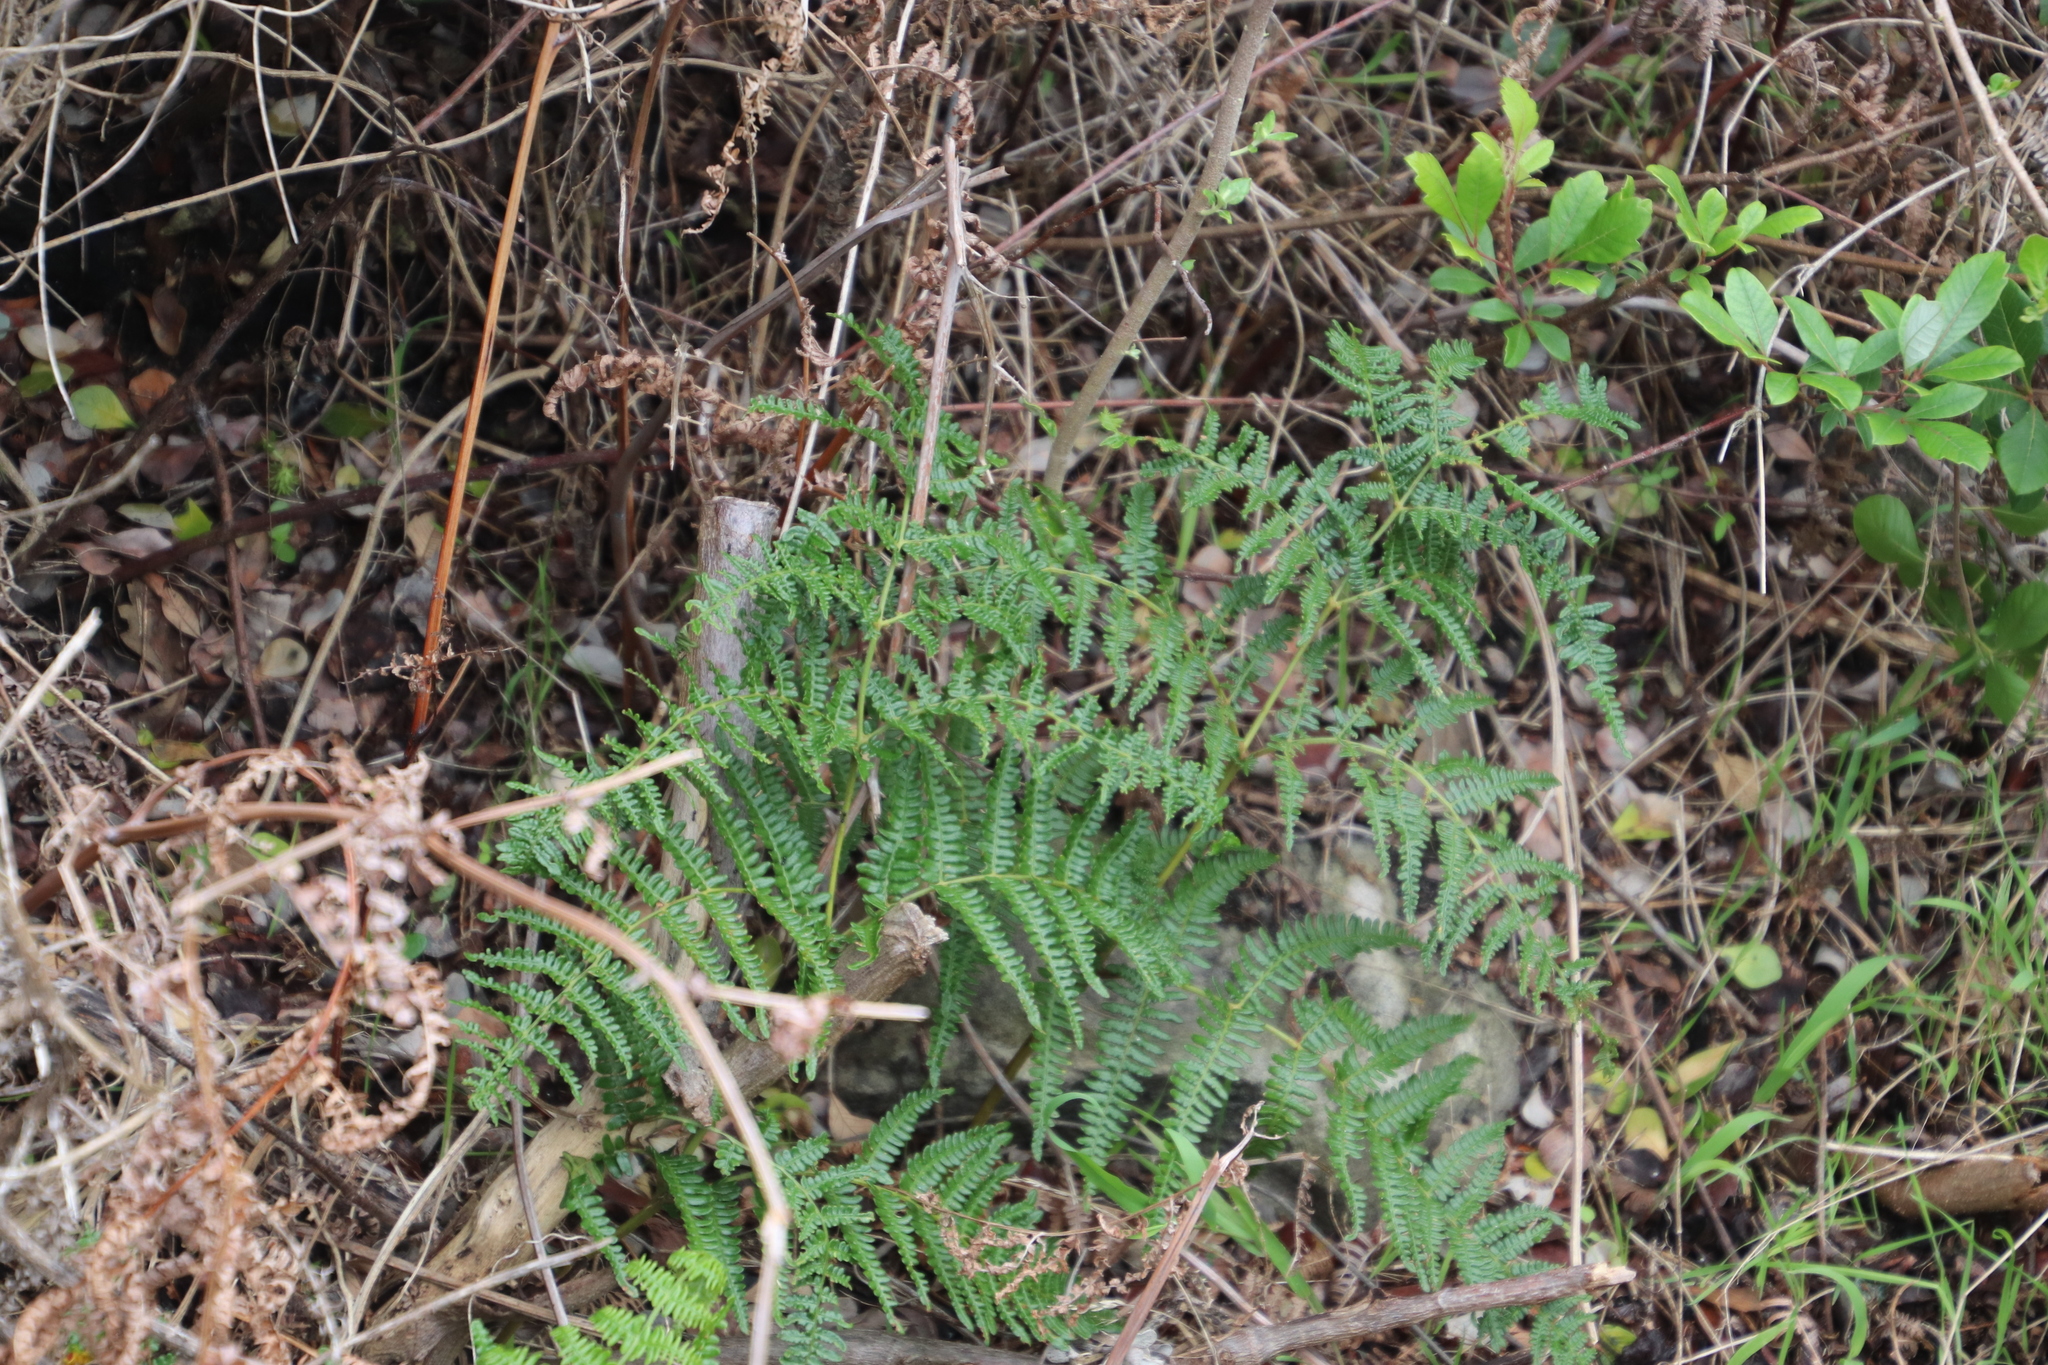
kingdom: Plantae
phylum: Tracheophyta
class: Polypodiopsida
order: Polypodiales
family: Dennstaedtiaceae
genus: Pteridium
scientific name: Pteridium aquilinum
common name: Bracken
